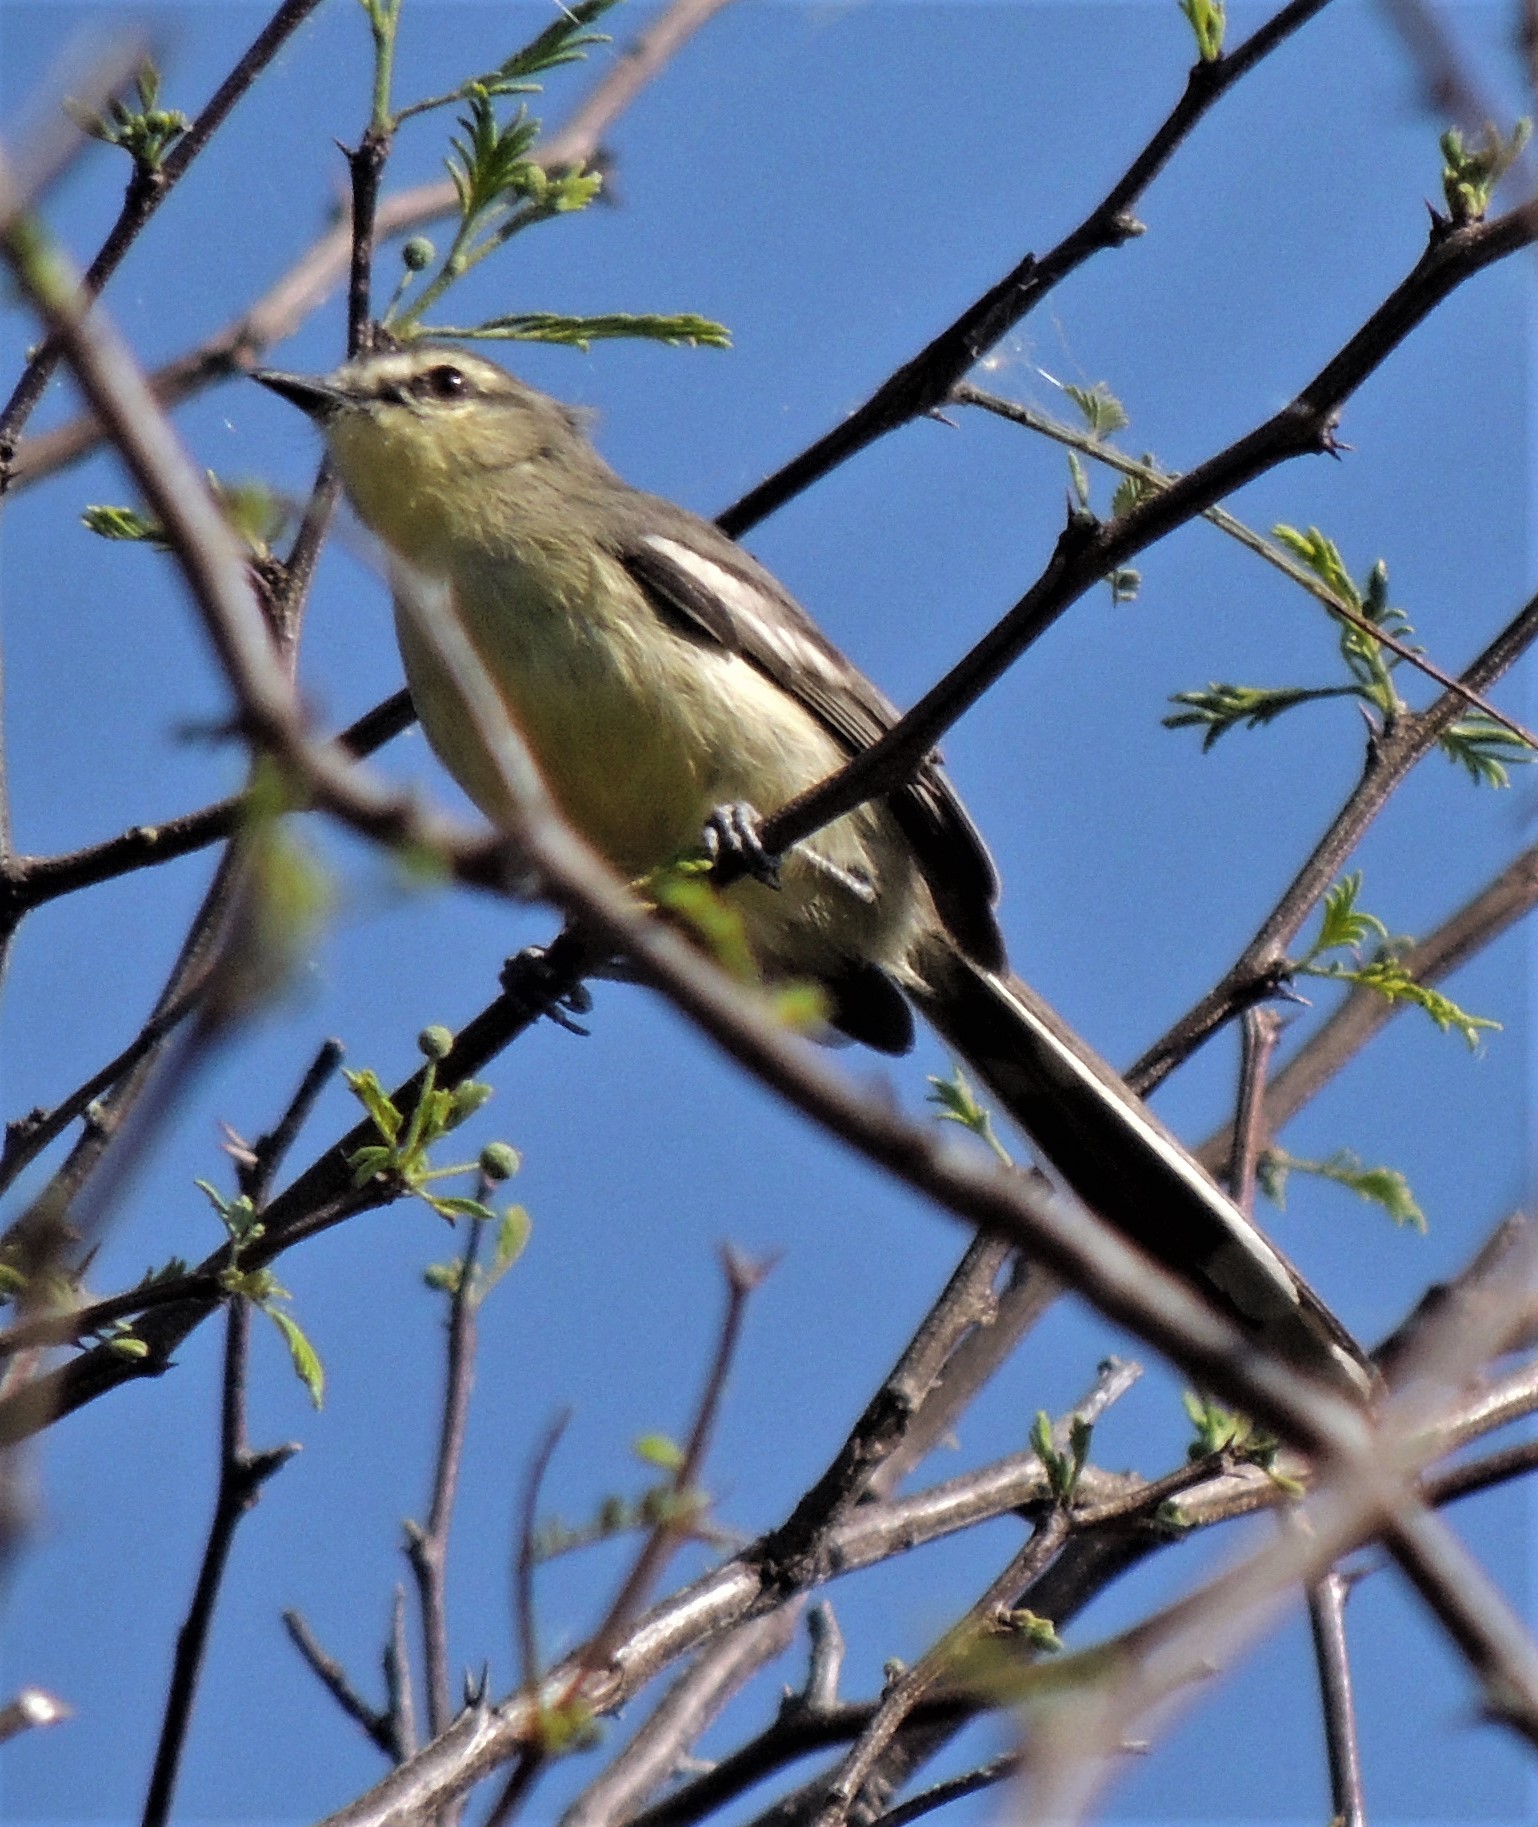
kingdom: Animalia
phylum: Chordata
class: Aves
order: Passeriformes
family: Tyrannidae
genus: Stigmatura
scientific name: Stigmatura budytoides
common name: Greater wagtail-tyrant
